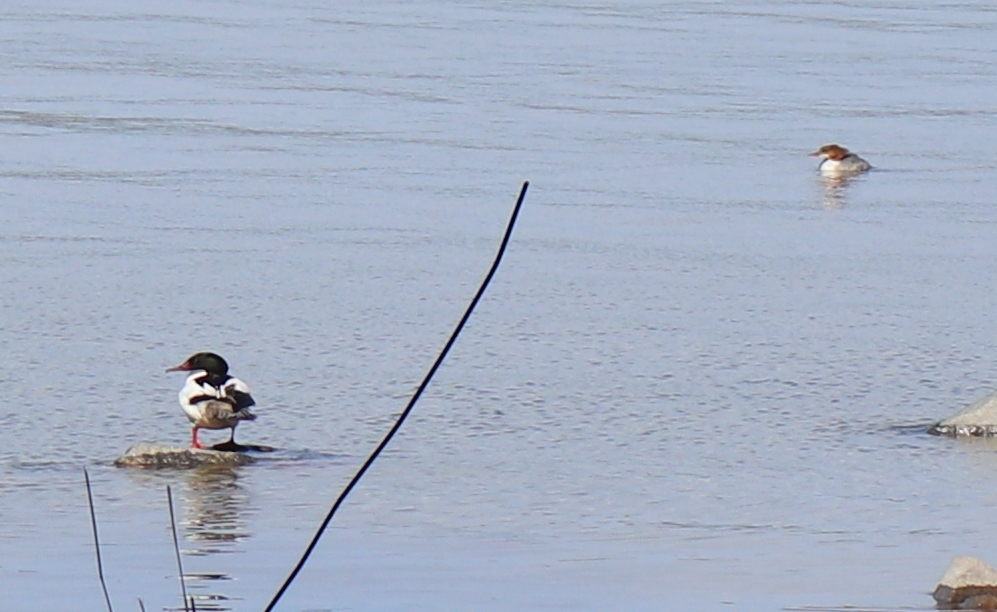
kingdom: Animalia
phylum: Chordata
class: Aves
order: Anseriformes
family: Anatidae
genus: Mergus
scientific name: Mergus merganser
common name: Common merganser
